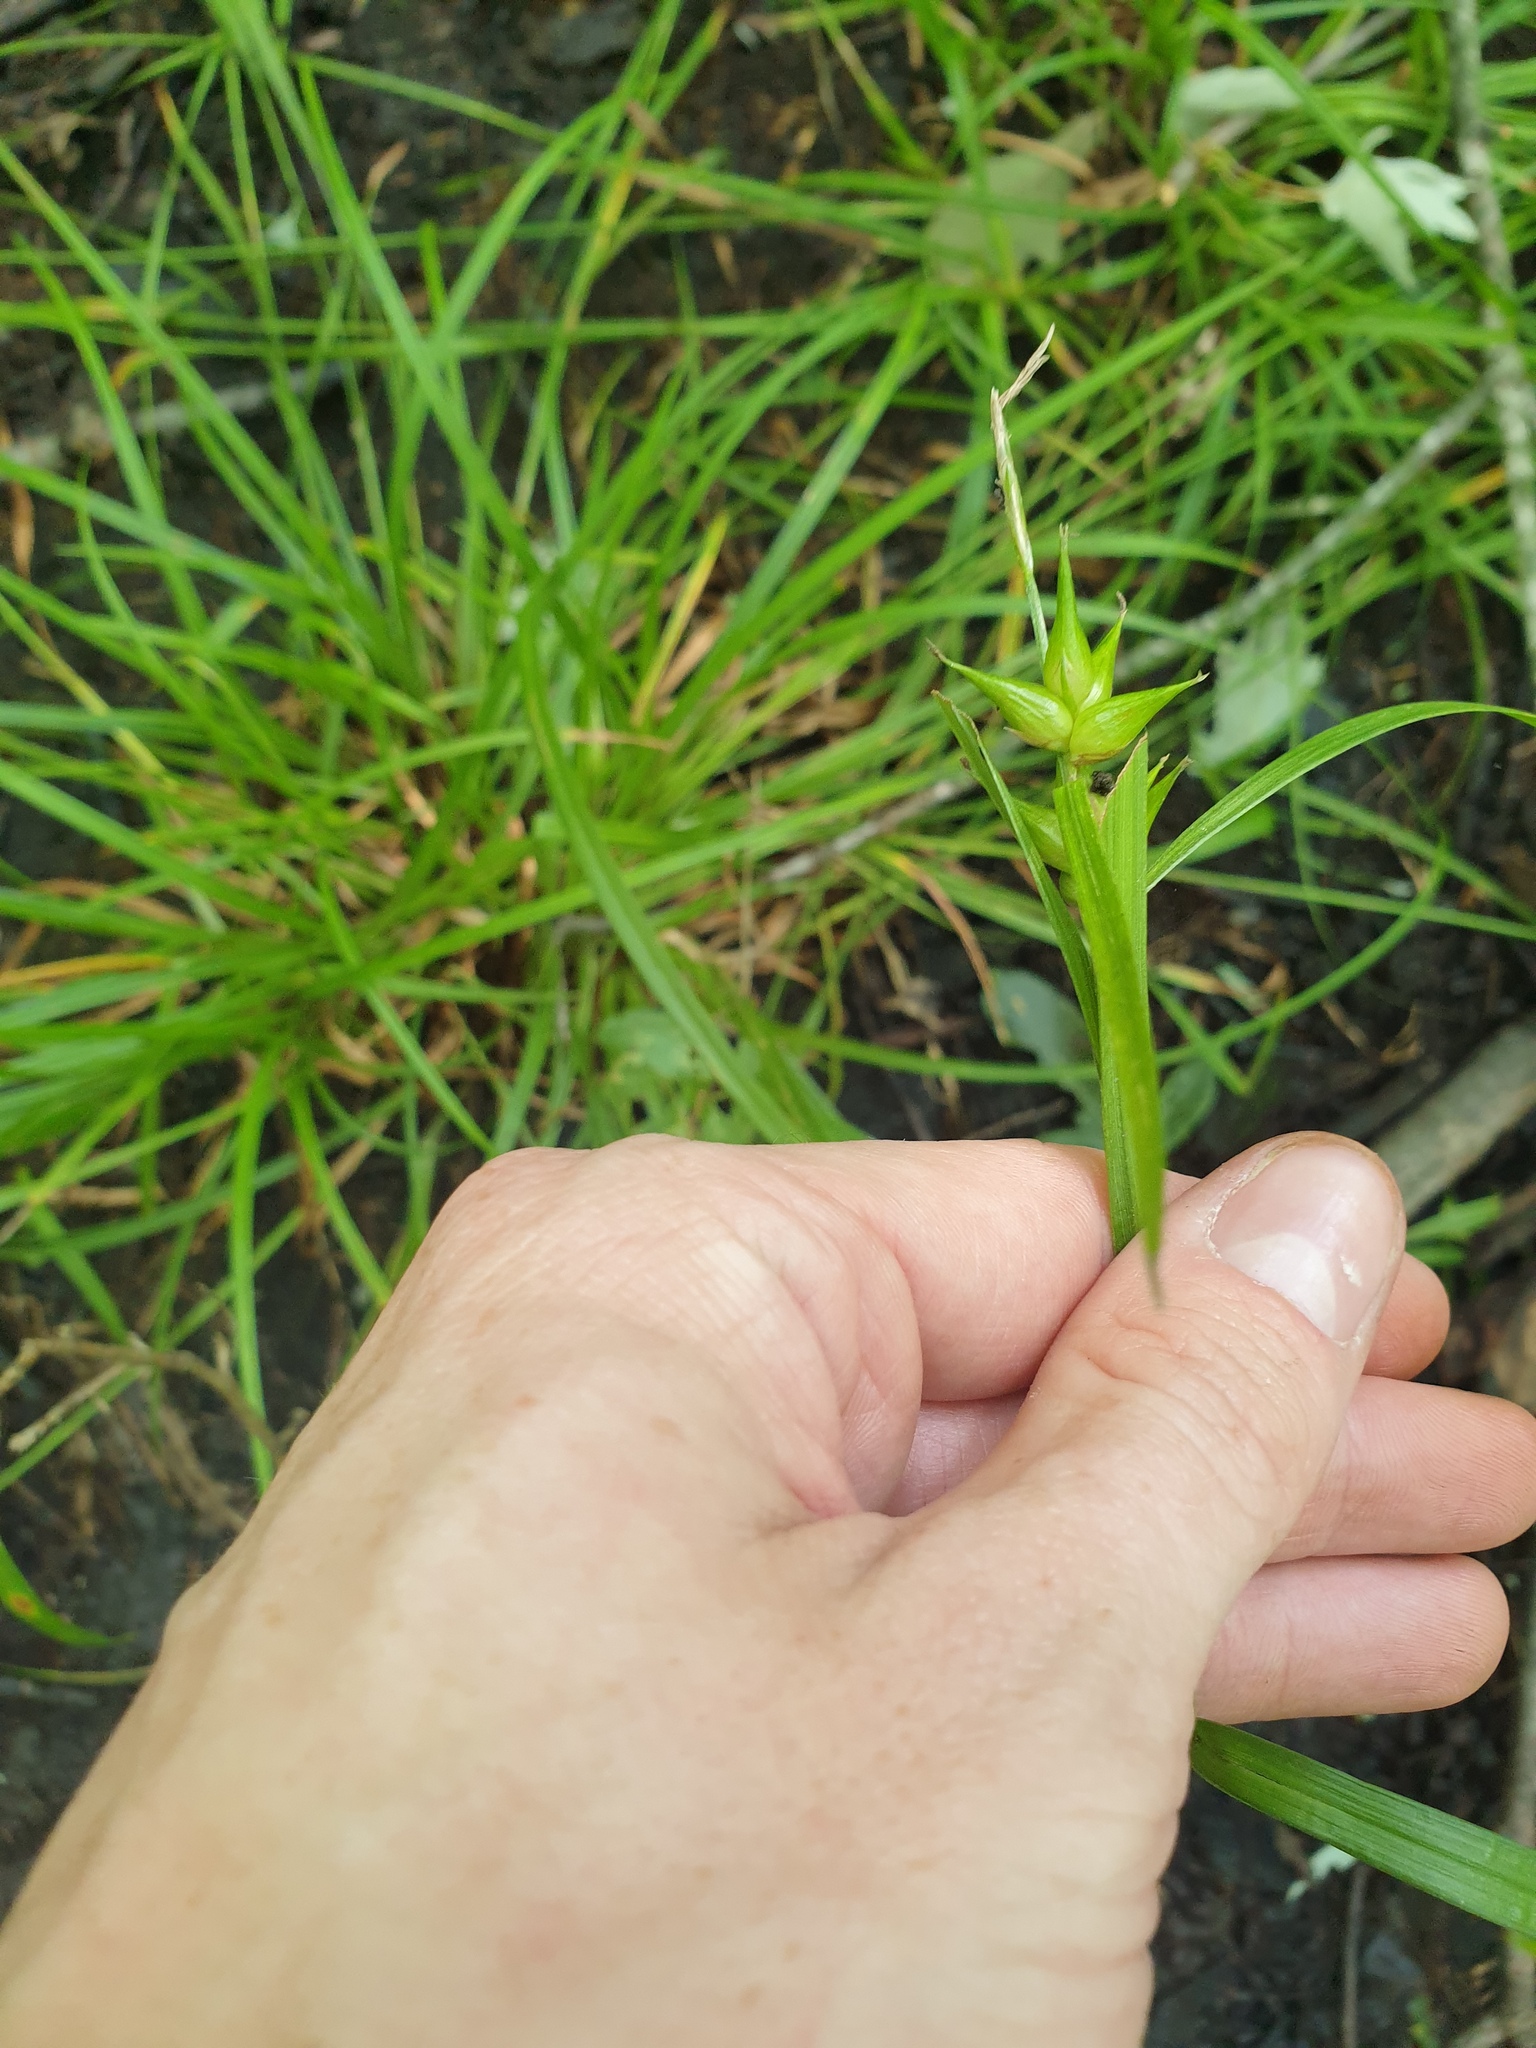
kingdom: Plantae
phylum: Tracheophyta
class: Liliopsida
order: Poales
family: Cyperaceae
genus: Carex
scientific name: Carex intumescens
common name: Greater bladder sedge
